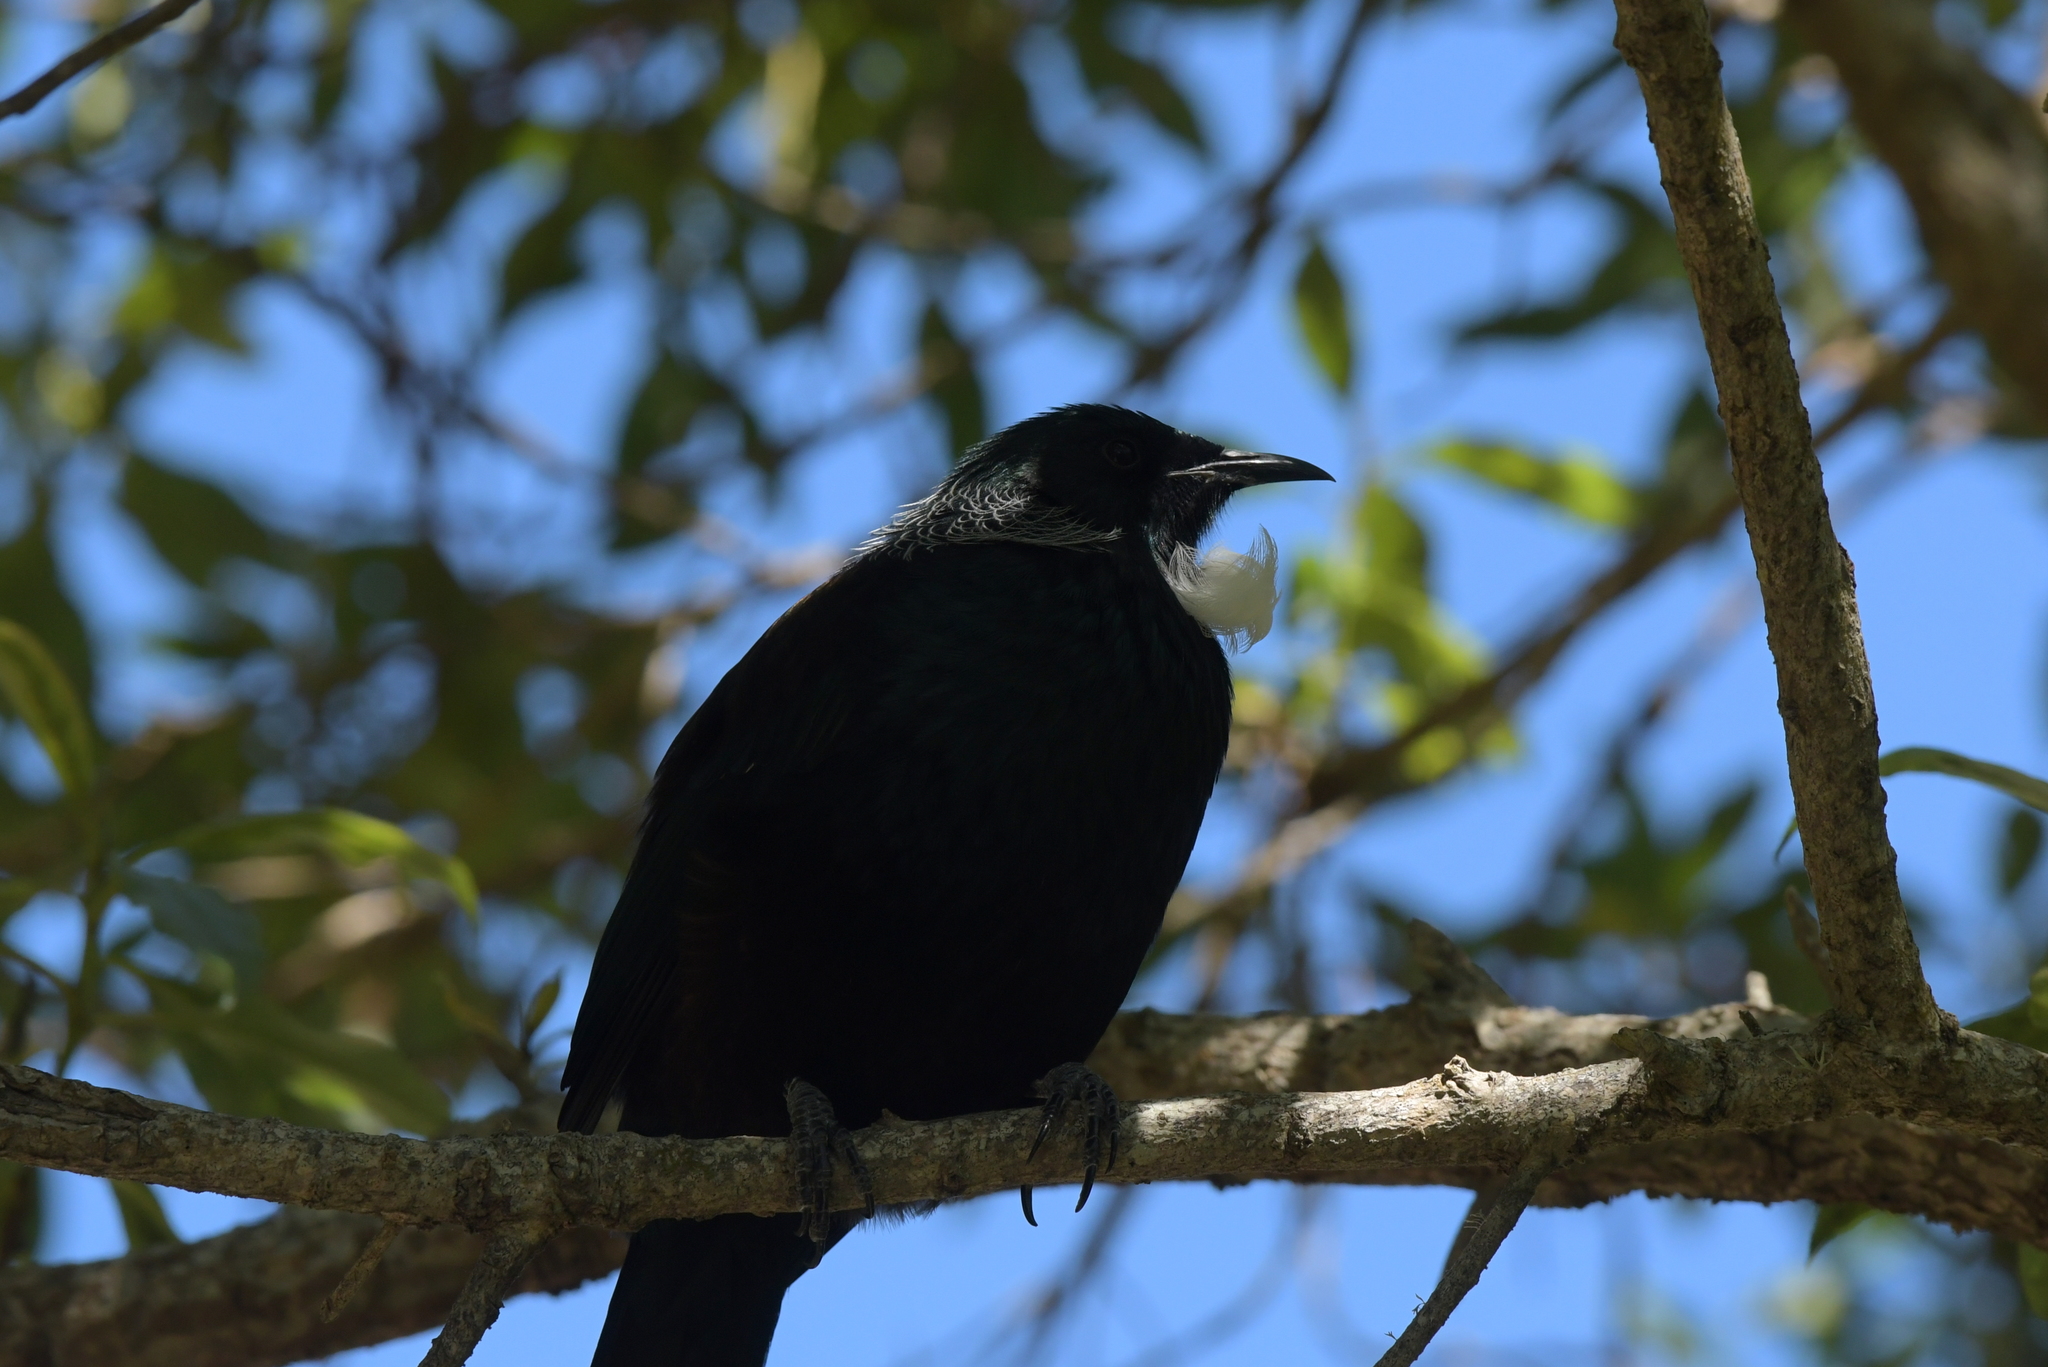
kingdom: Animalia
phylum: Chordata
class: Aves
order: Passeriformes
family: Meliphagidae
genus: Prosthemadera
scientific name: Prosthemadera novaeseelandiae
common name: Tui
